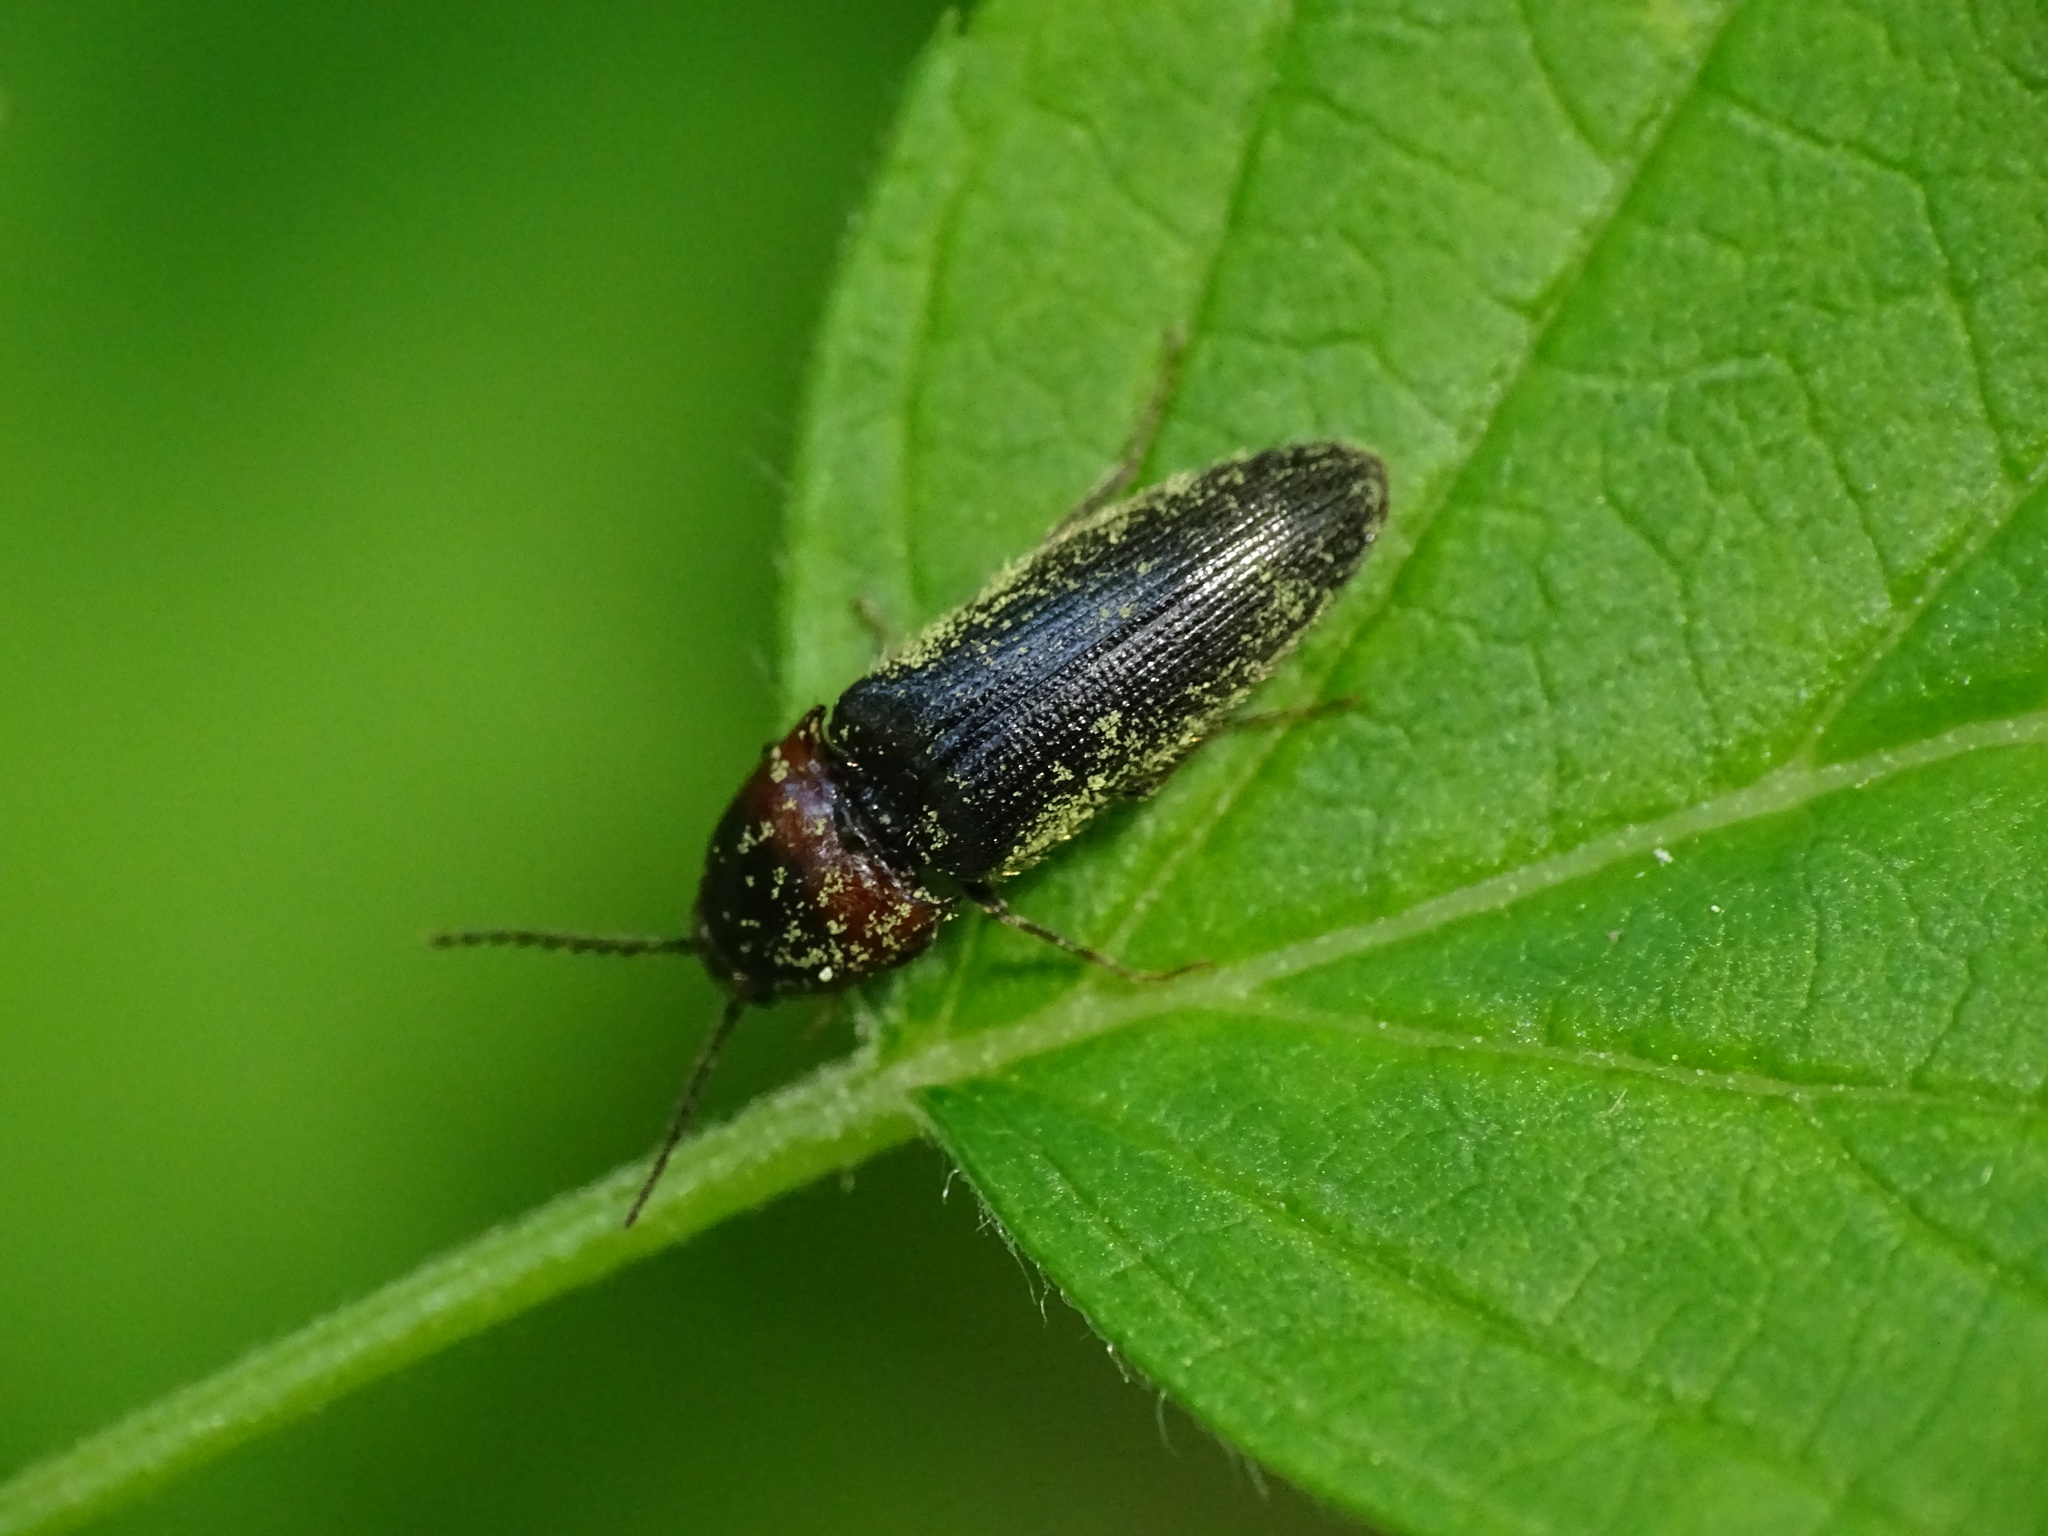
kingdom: Animalia
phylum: Arthropoda
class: Insecta
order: Coleoptera
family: Elateridae
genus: Ampedus
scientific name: Ampedus rubricus
